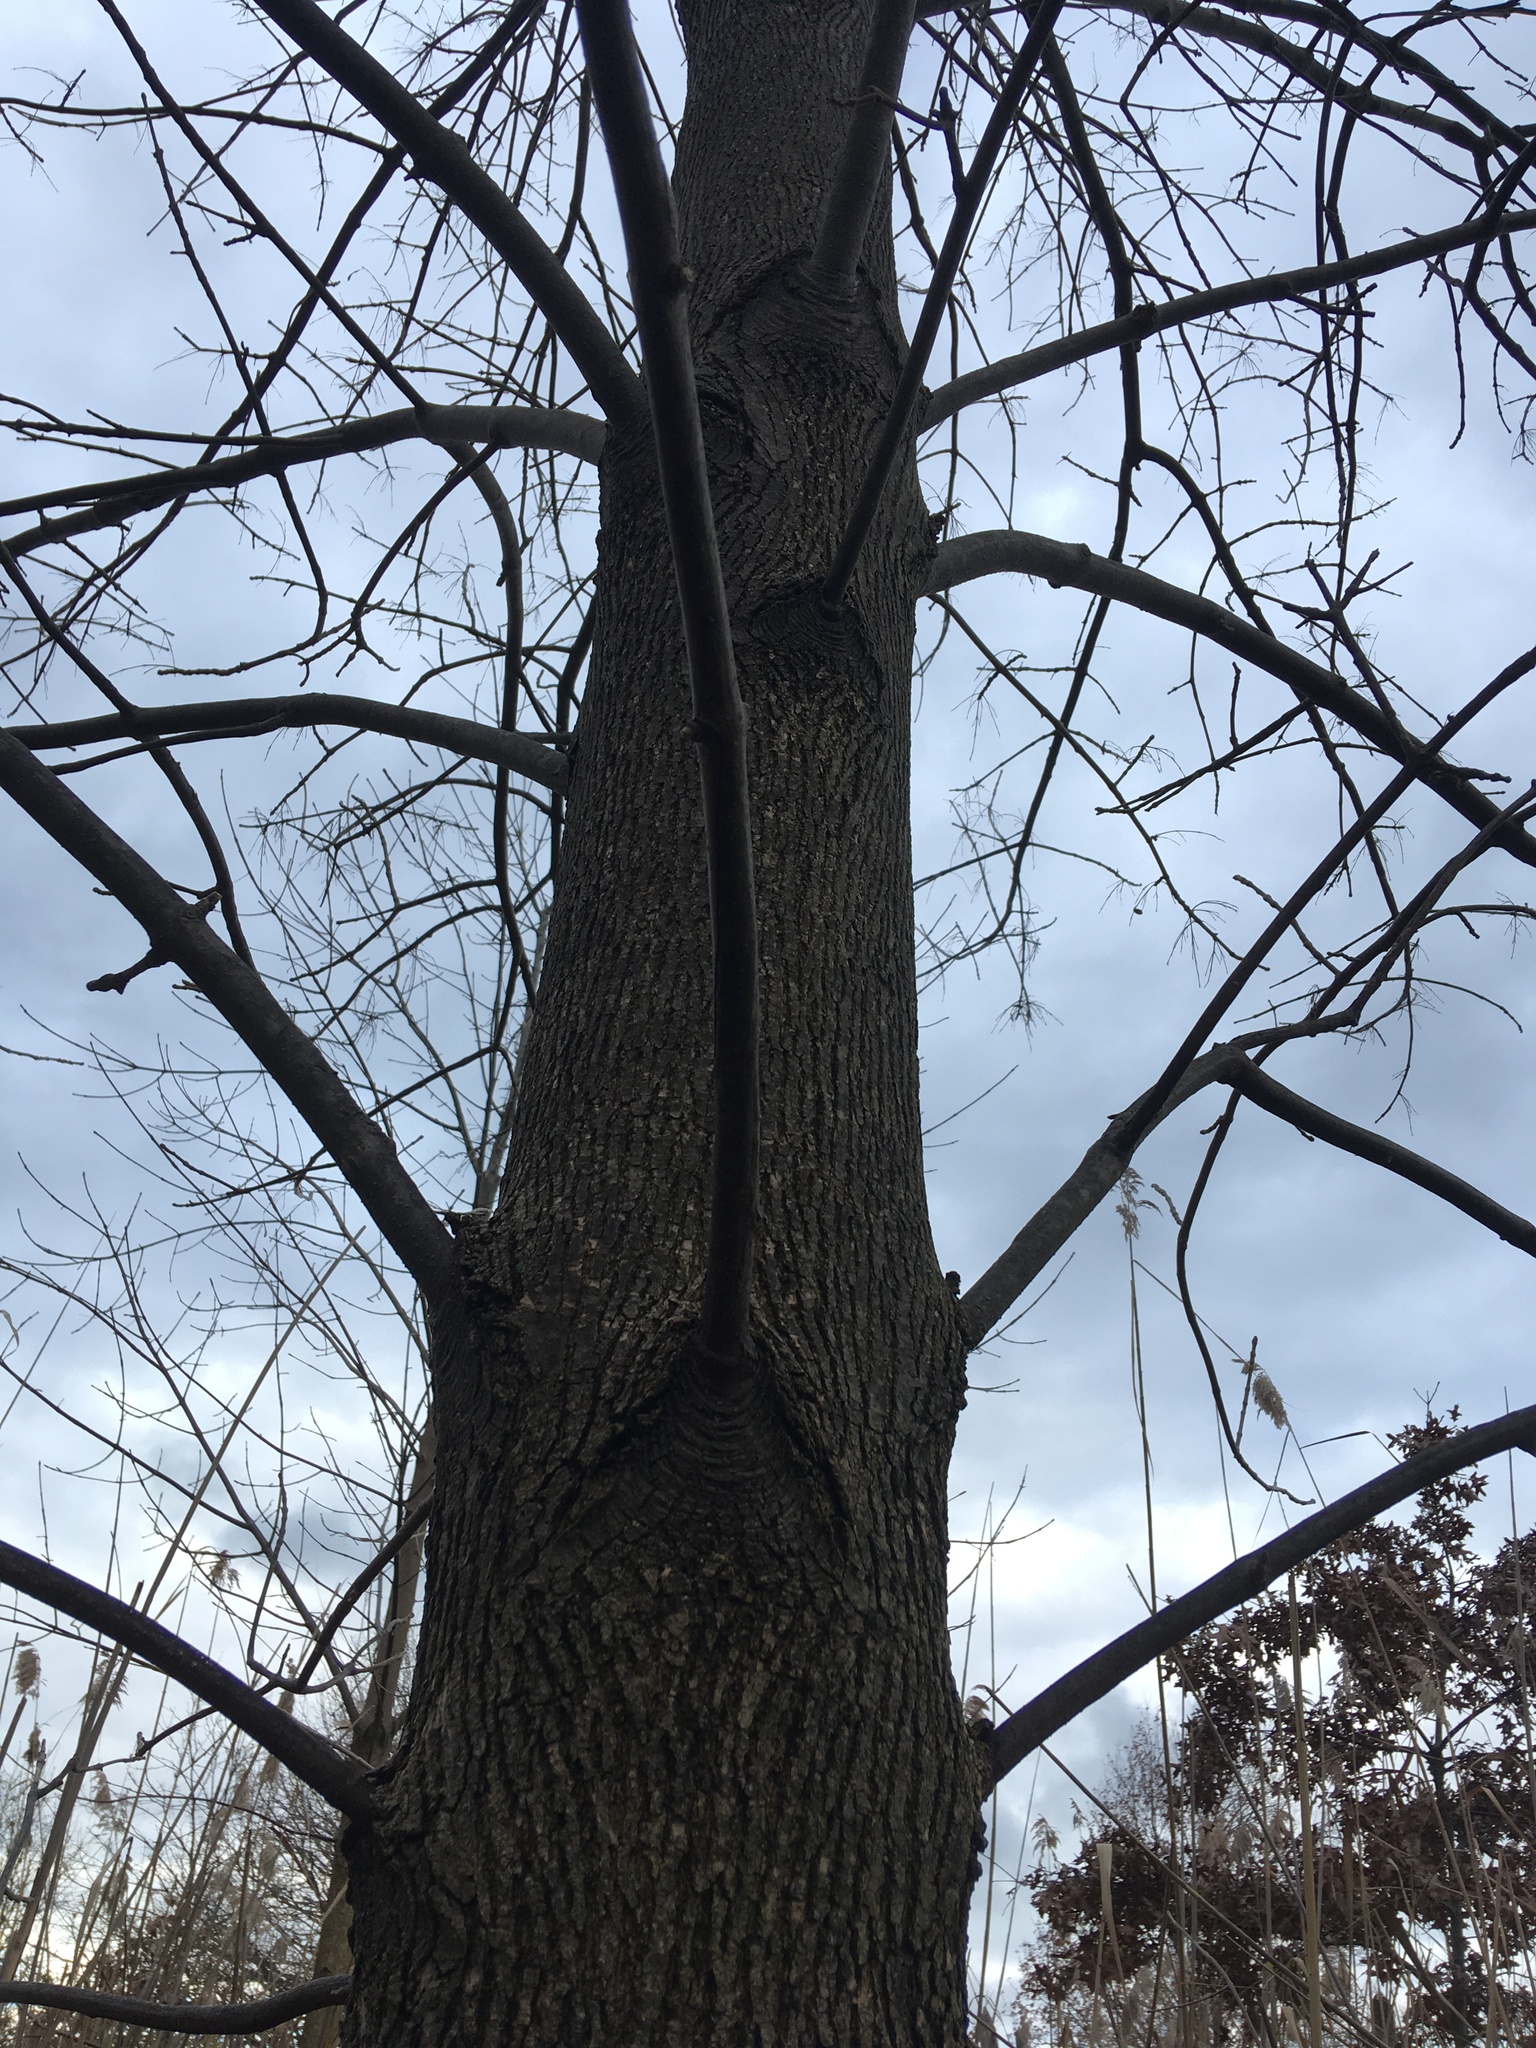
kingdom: Plantae
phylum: Tracheophyta
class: Magnoliopsida
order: Lamiales
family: Oleaceae
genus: Fraxinus
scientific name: Fraxinus pennsylvanica
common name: Green ash
